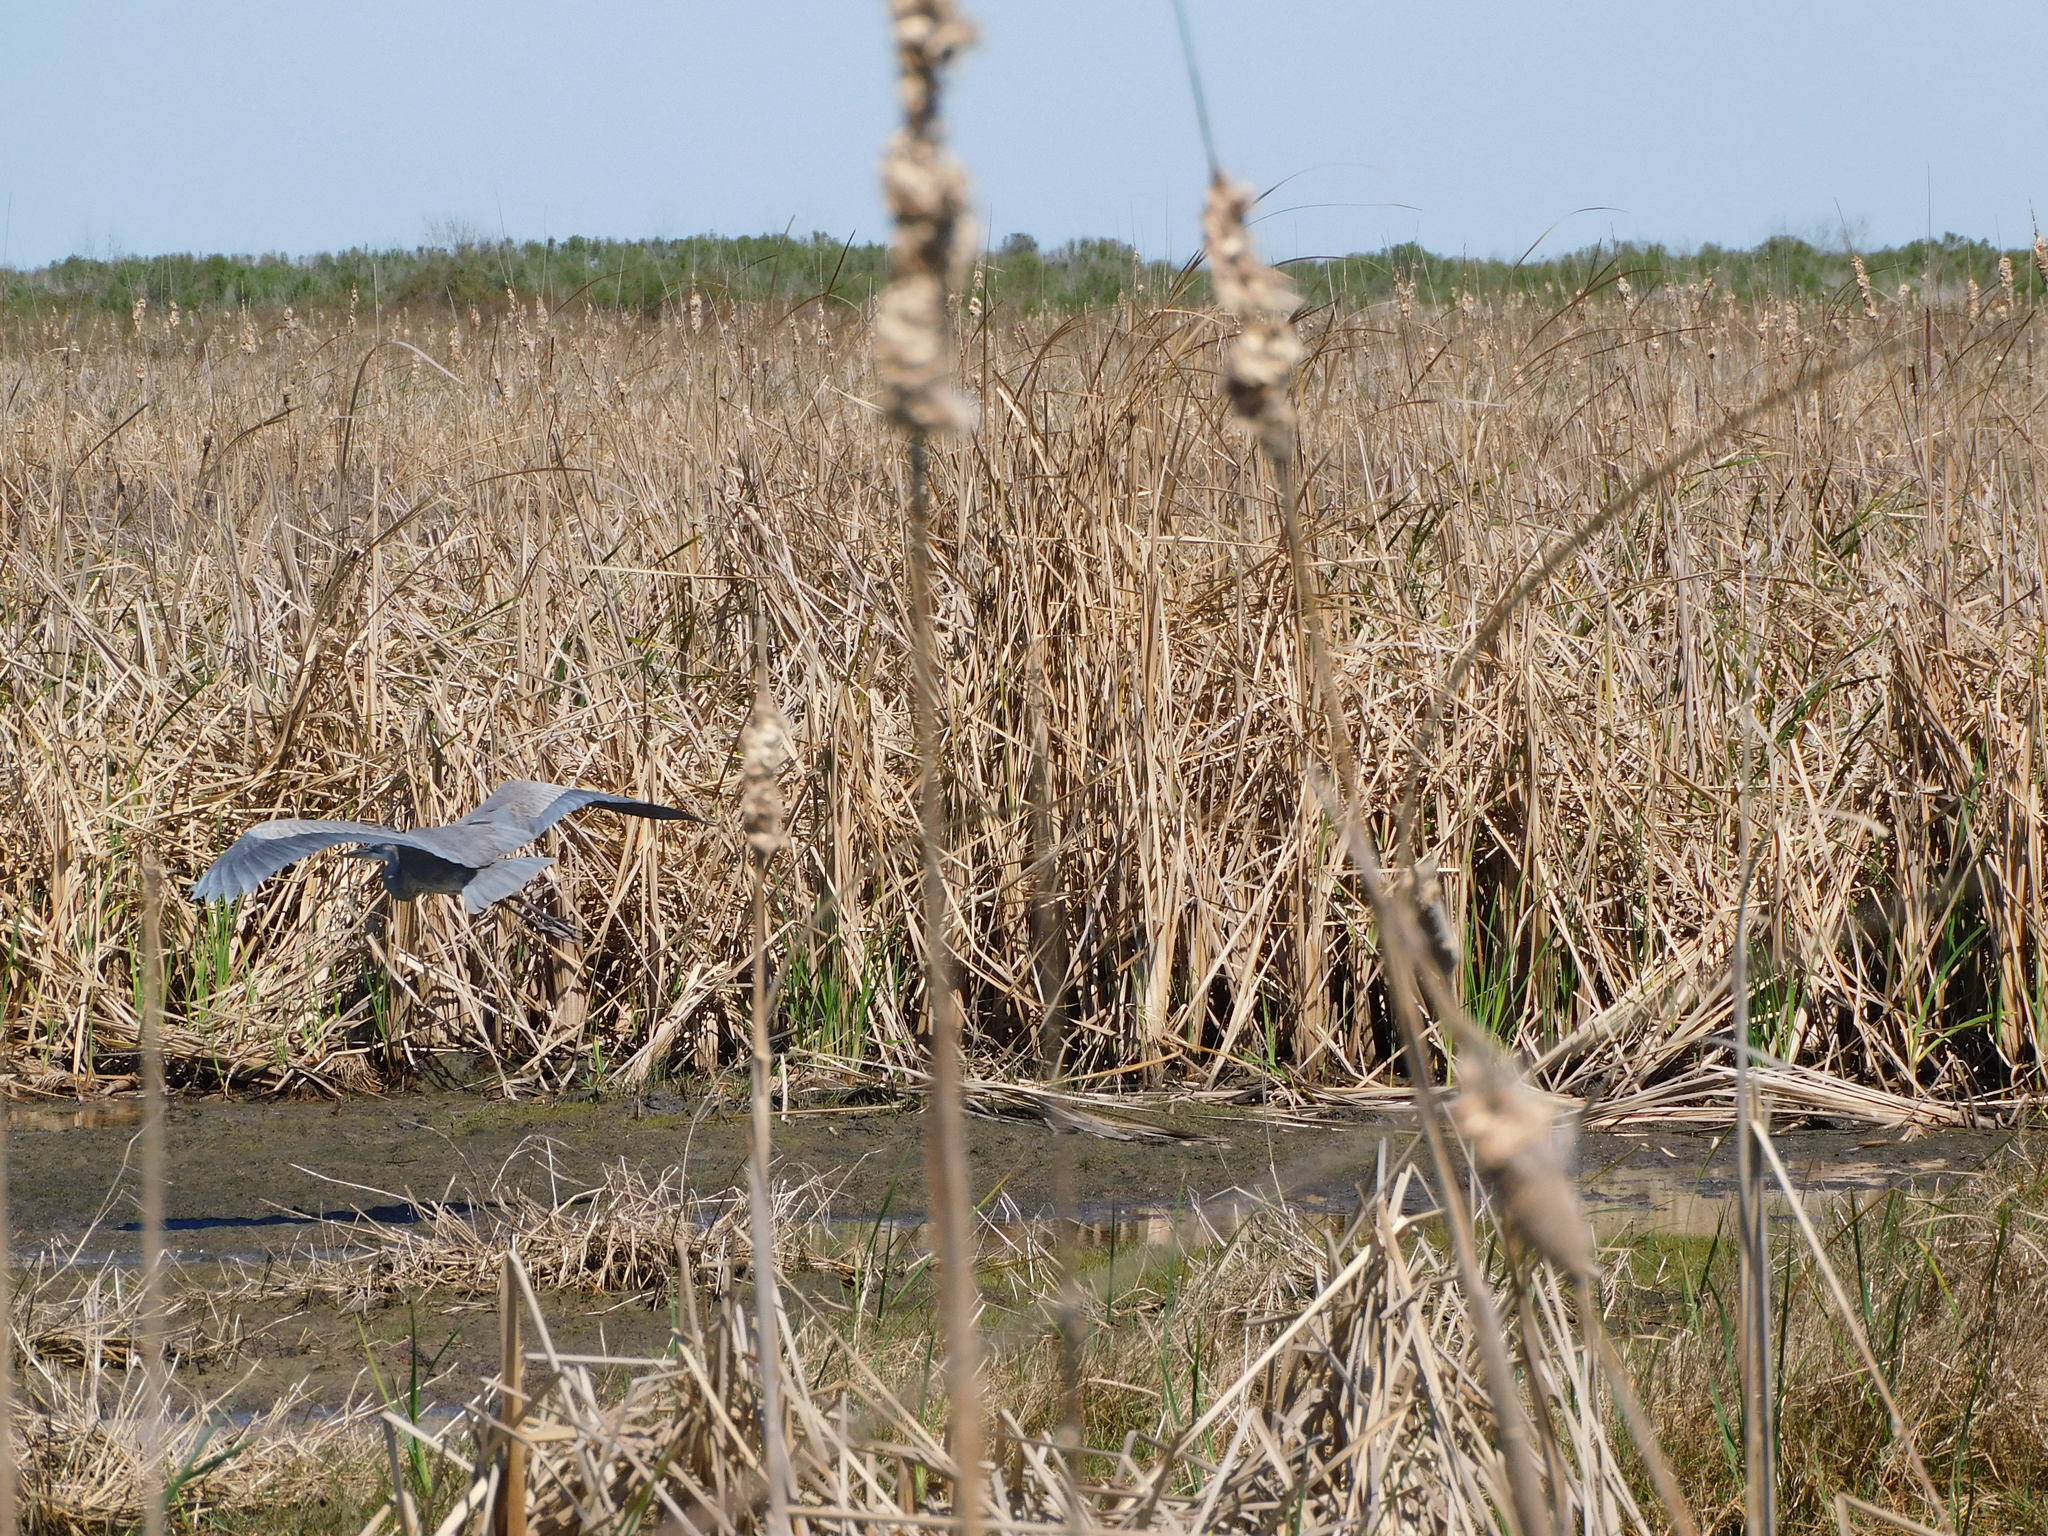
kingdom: Animalia
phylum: Chordata
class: Aves
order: Pelecaniformes
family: Ardeidae
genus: Ardea
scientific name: Ardea herodias
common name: Great blue heron
